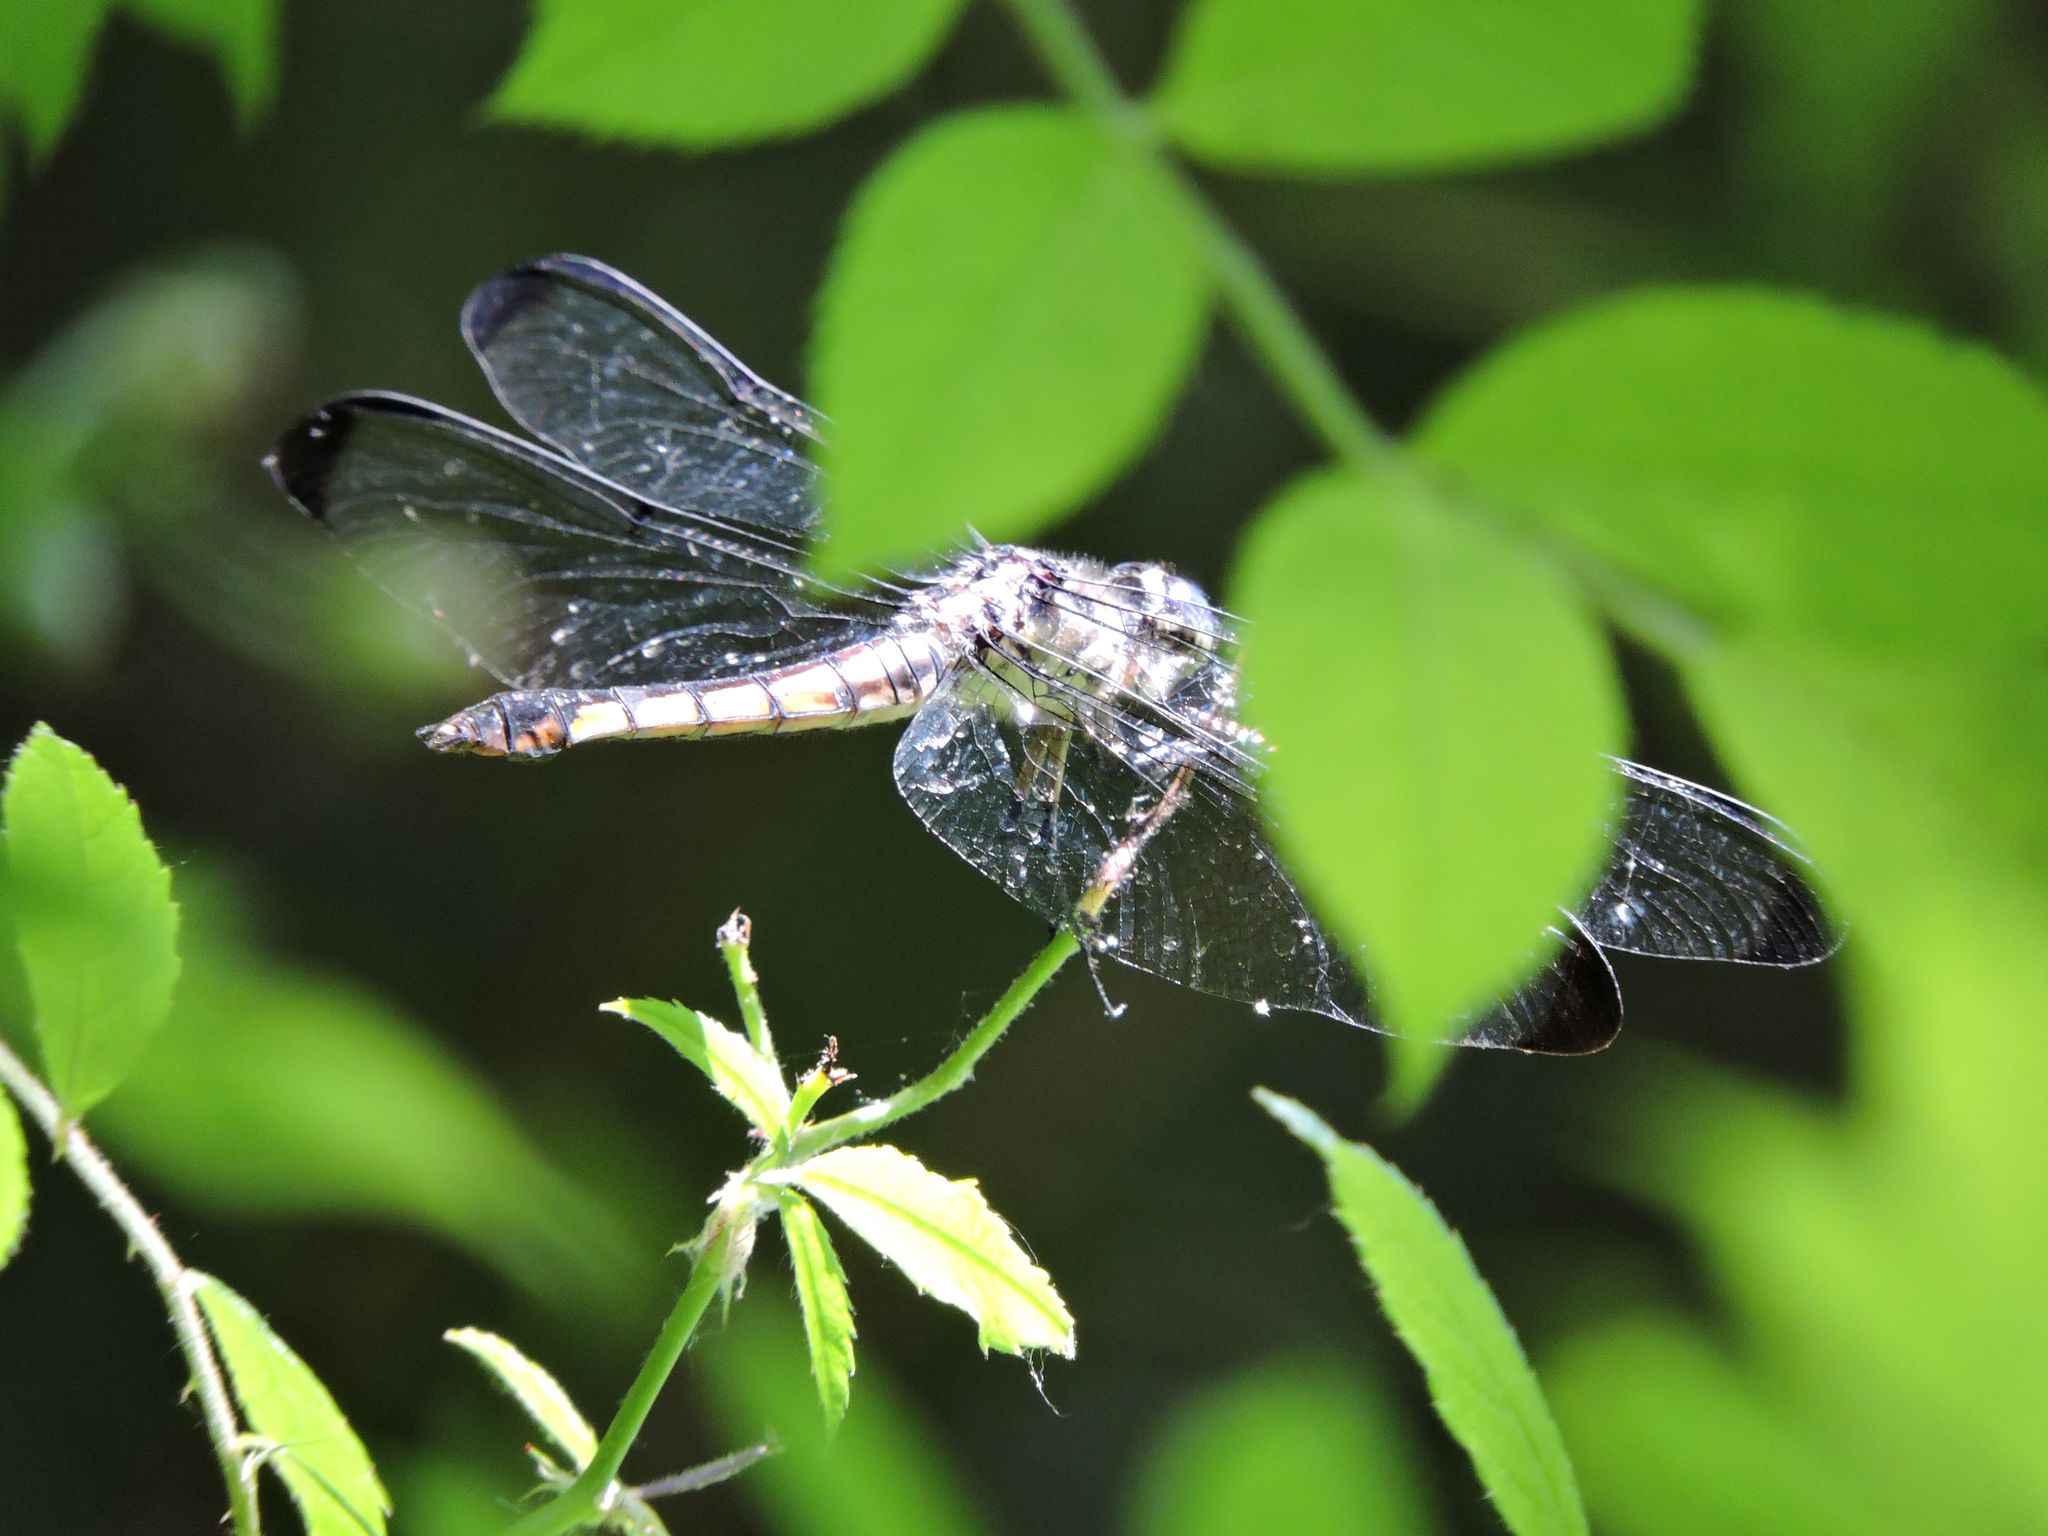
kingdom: Animalia
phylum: Arthropoda
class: Insecta
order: Odonata
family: Libellulidae
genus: Libellula
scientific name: Libellula vibrans
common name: Great blue skimmer
